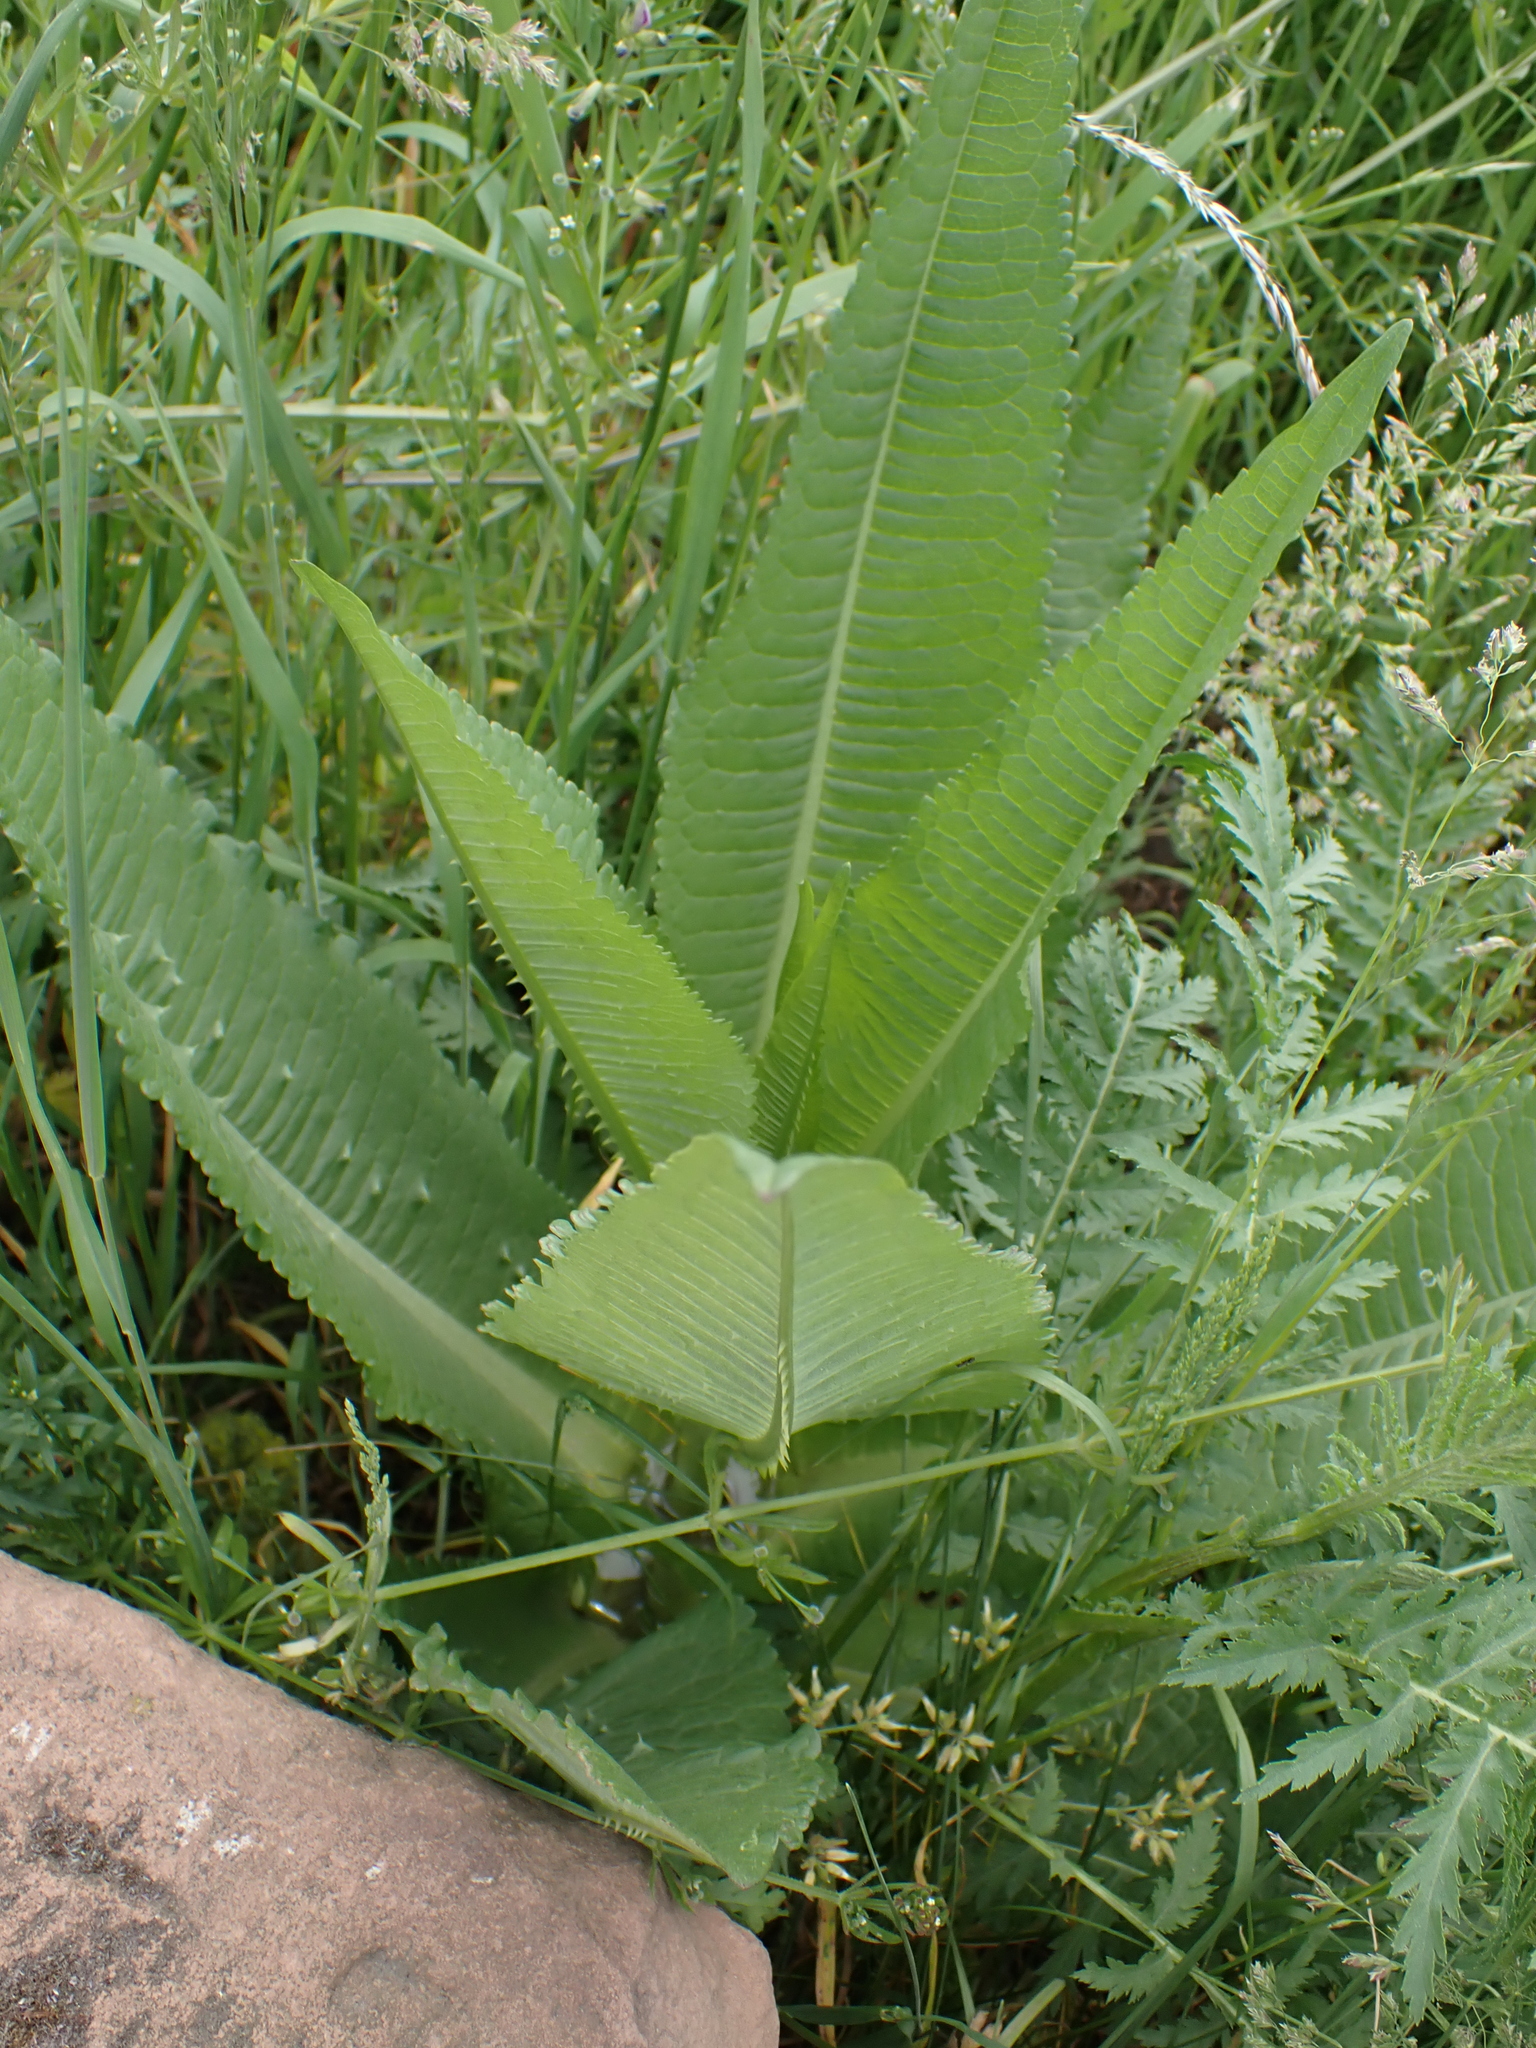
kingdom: Plantae
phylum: Tracheophyta
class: Magnoliopsida
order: Dipsacales
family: Caprifoliaceae
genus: Dipsacus
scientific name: Dipsacus fullonum
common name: Teasel
